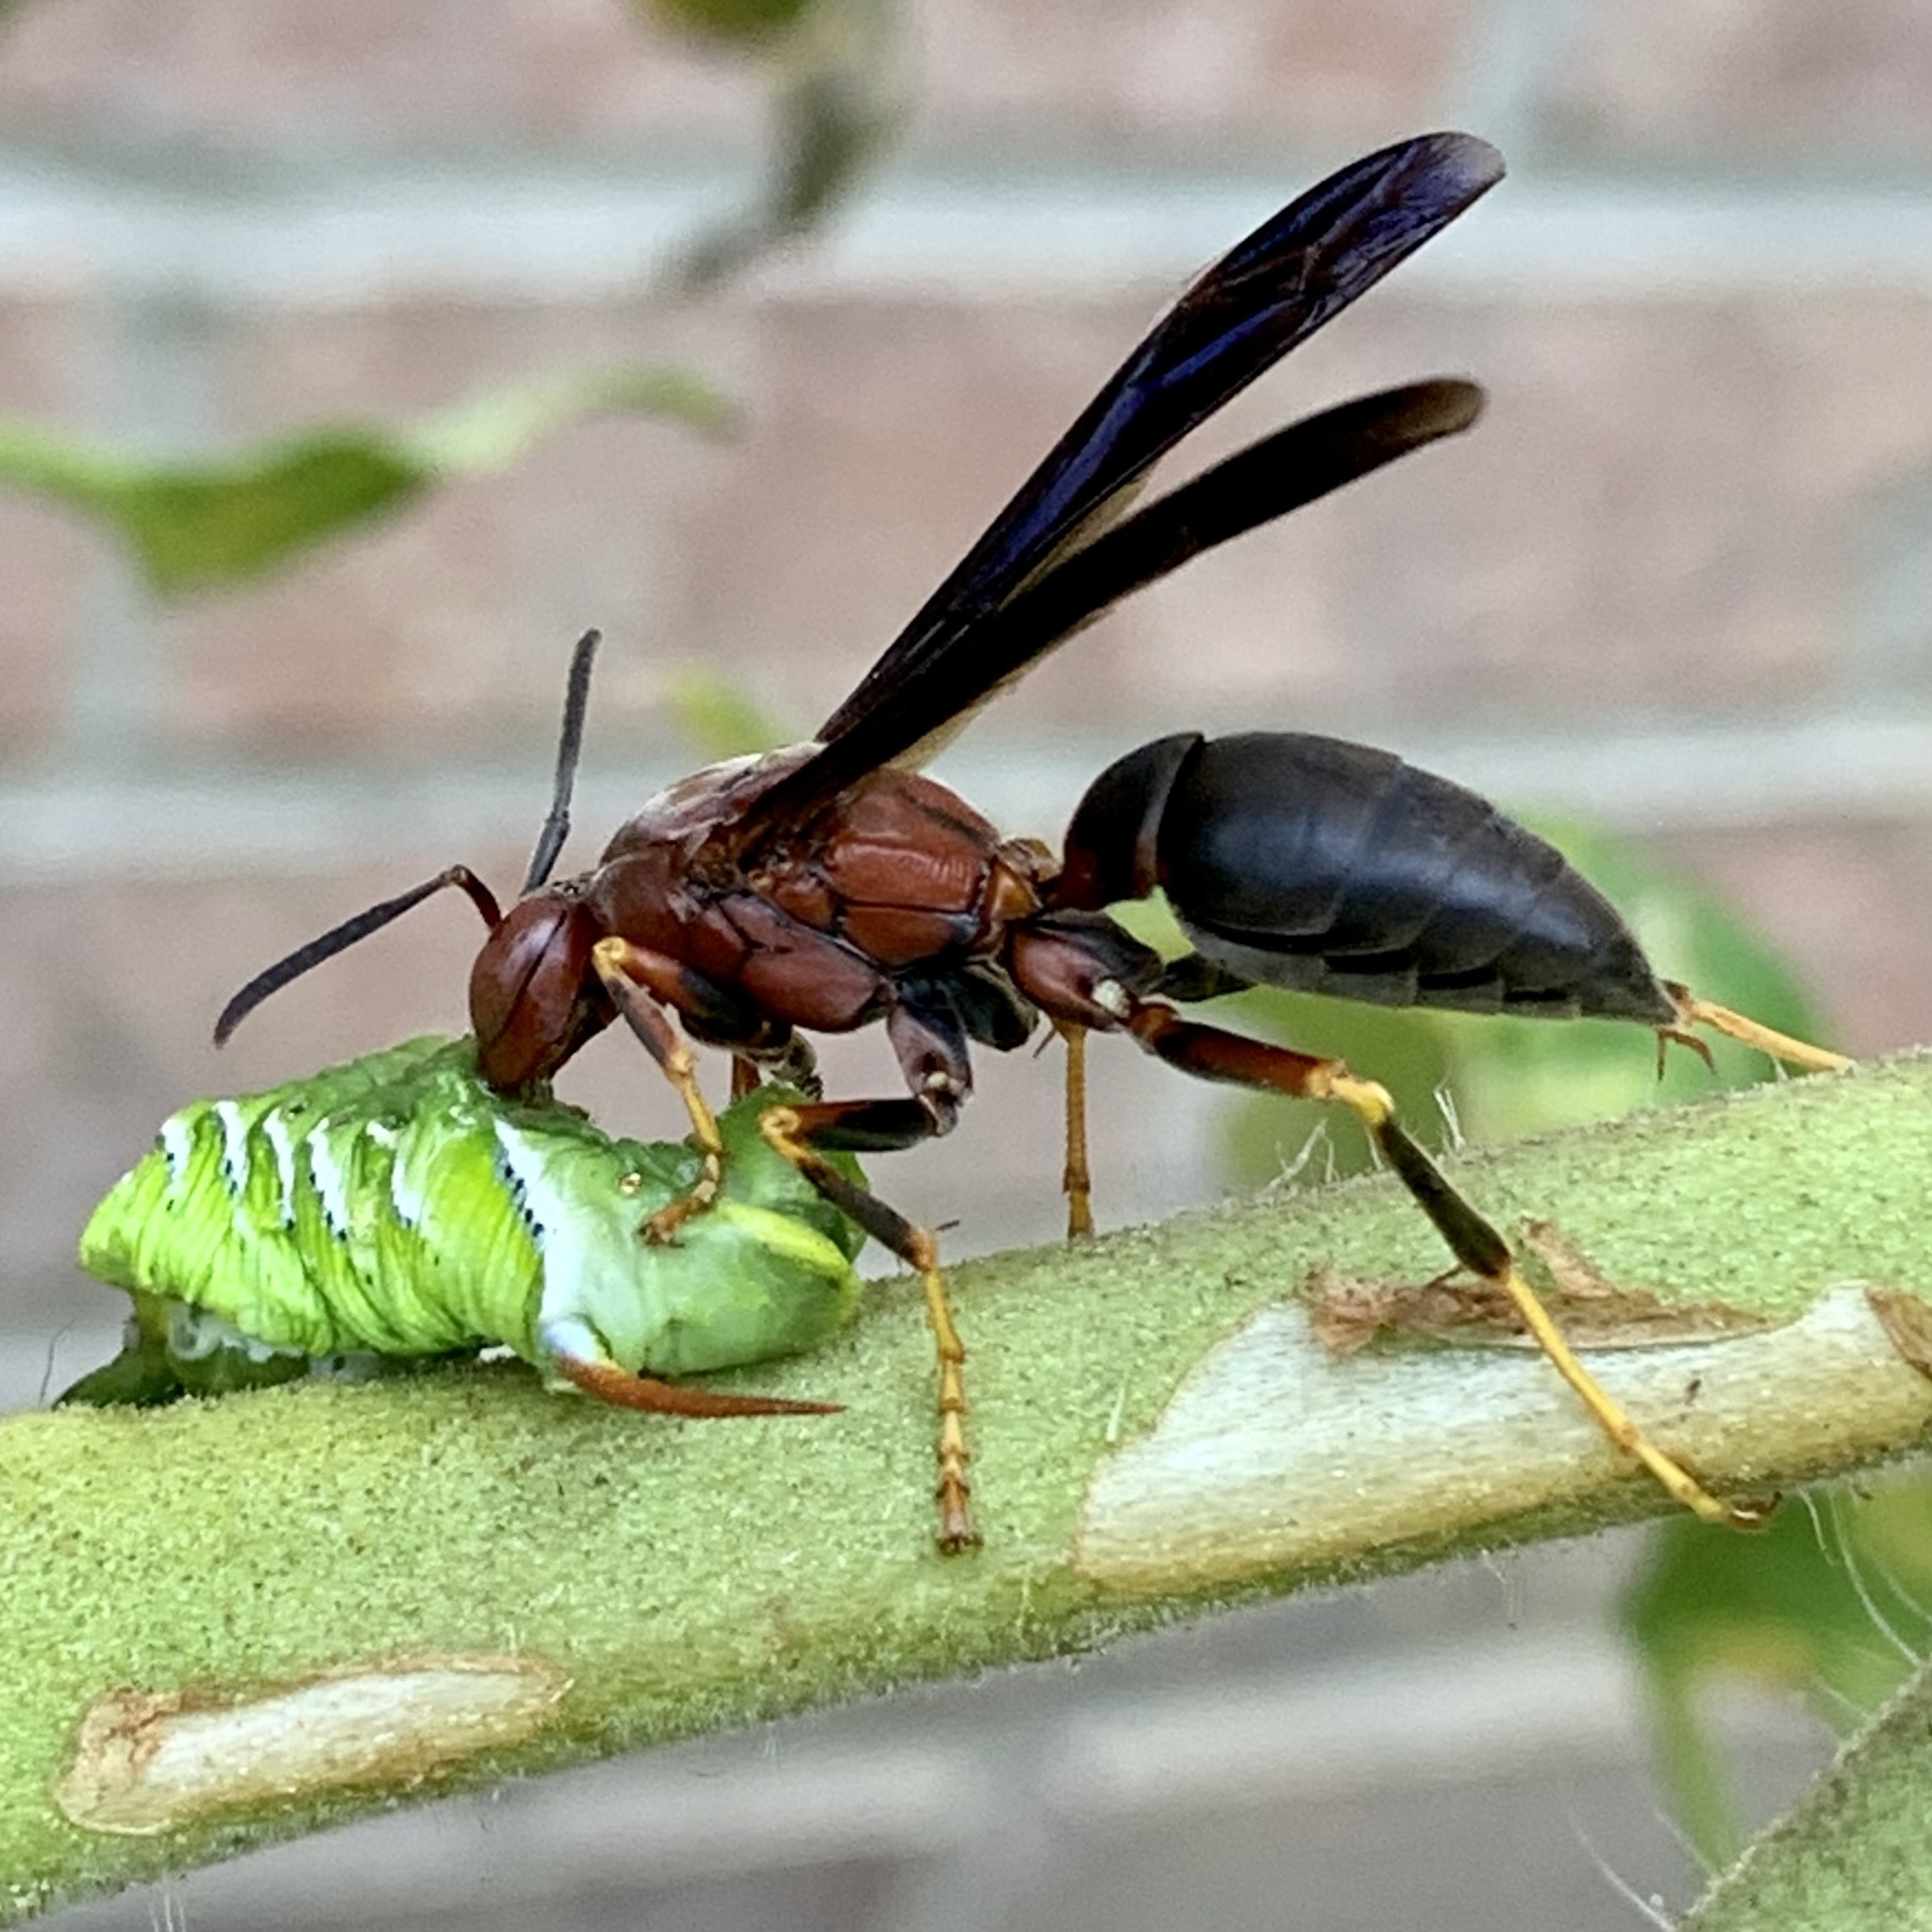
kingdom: Animalia
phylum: Arthropoda
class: Insecta
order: Hymenoptera
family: Eumenidae
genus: Polistes
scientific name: Polistes metricus
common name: Metric paper wasp
